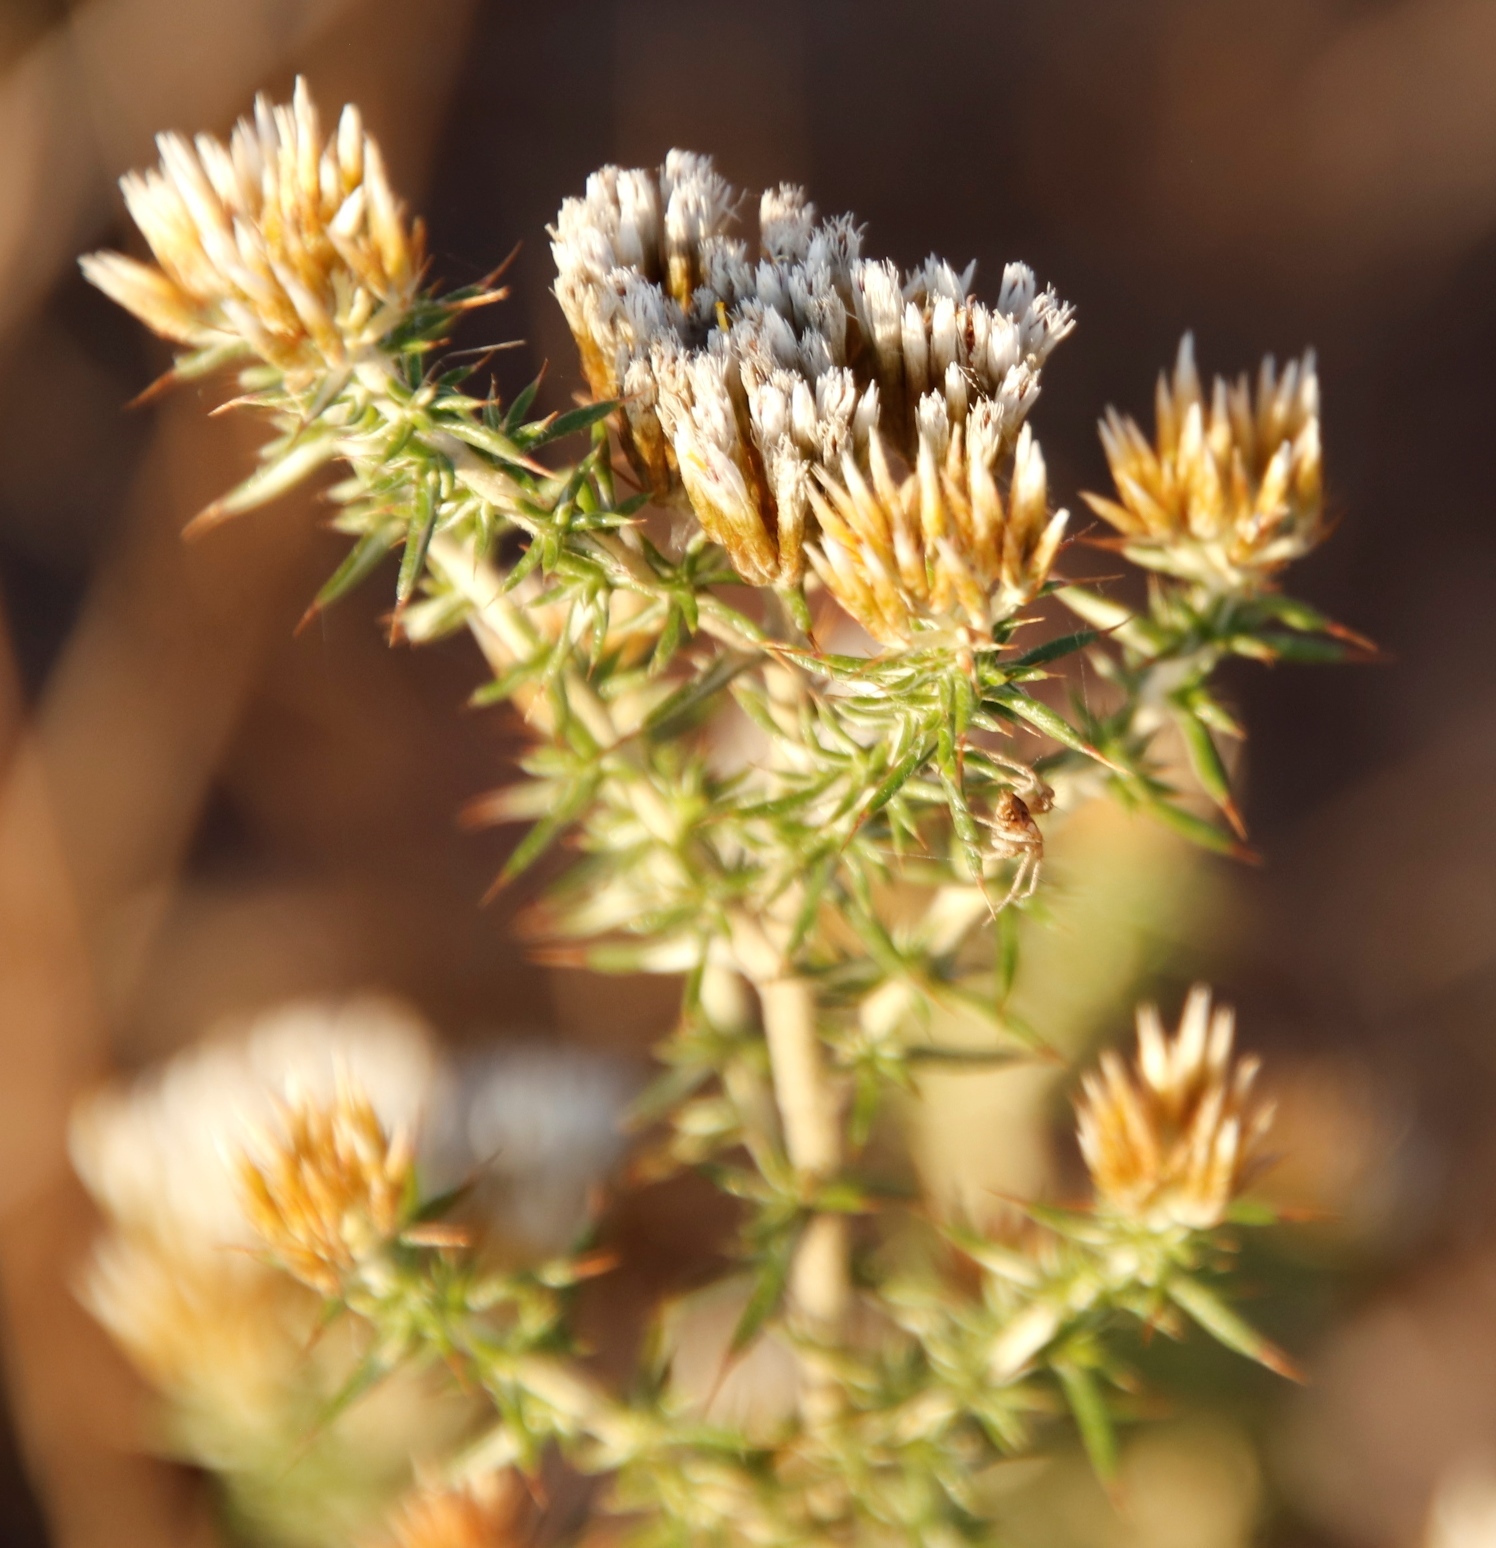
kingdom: Plantae
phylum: Tracheophyta
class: Magnoliopsida
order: Asterales
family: Asteraceae
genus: Metalasia
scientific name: Metalasia acuta
